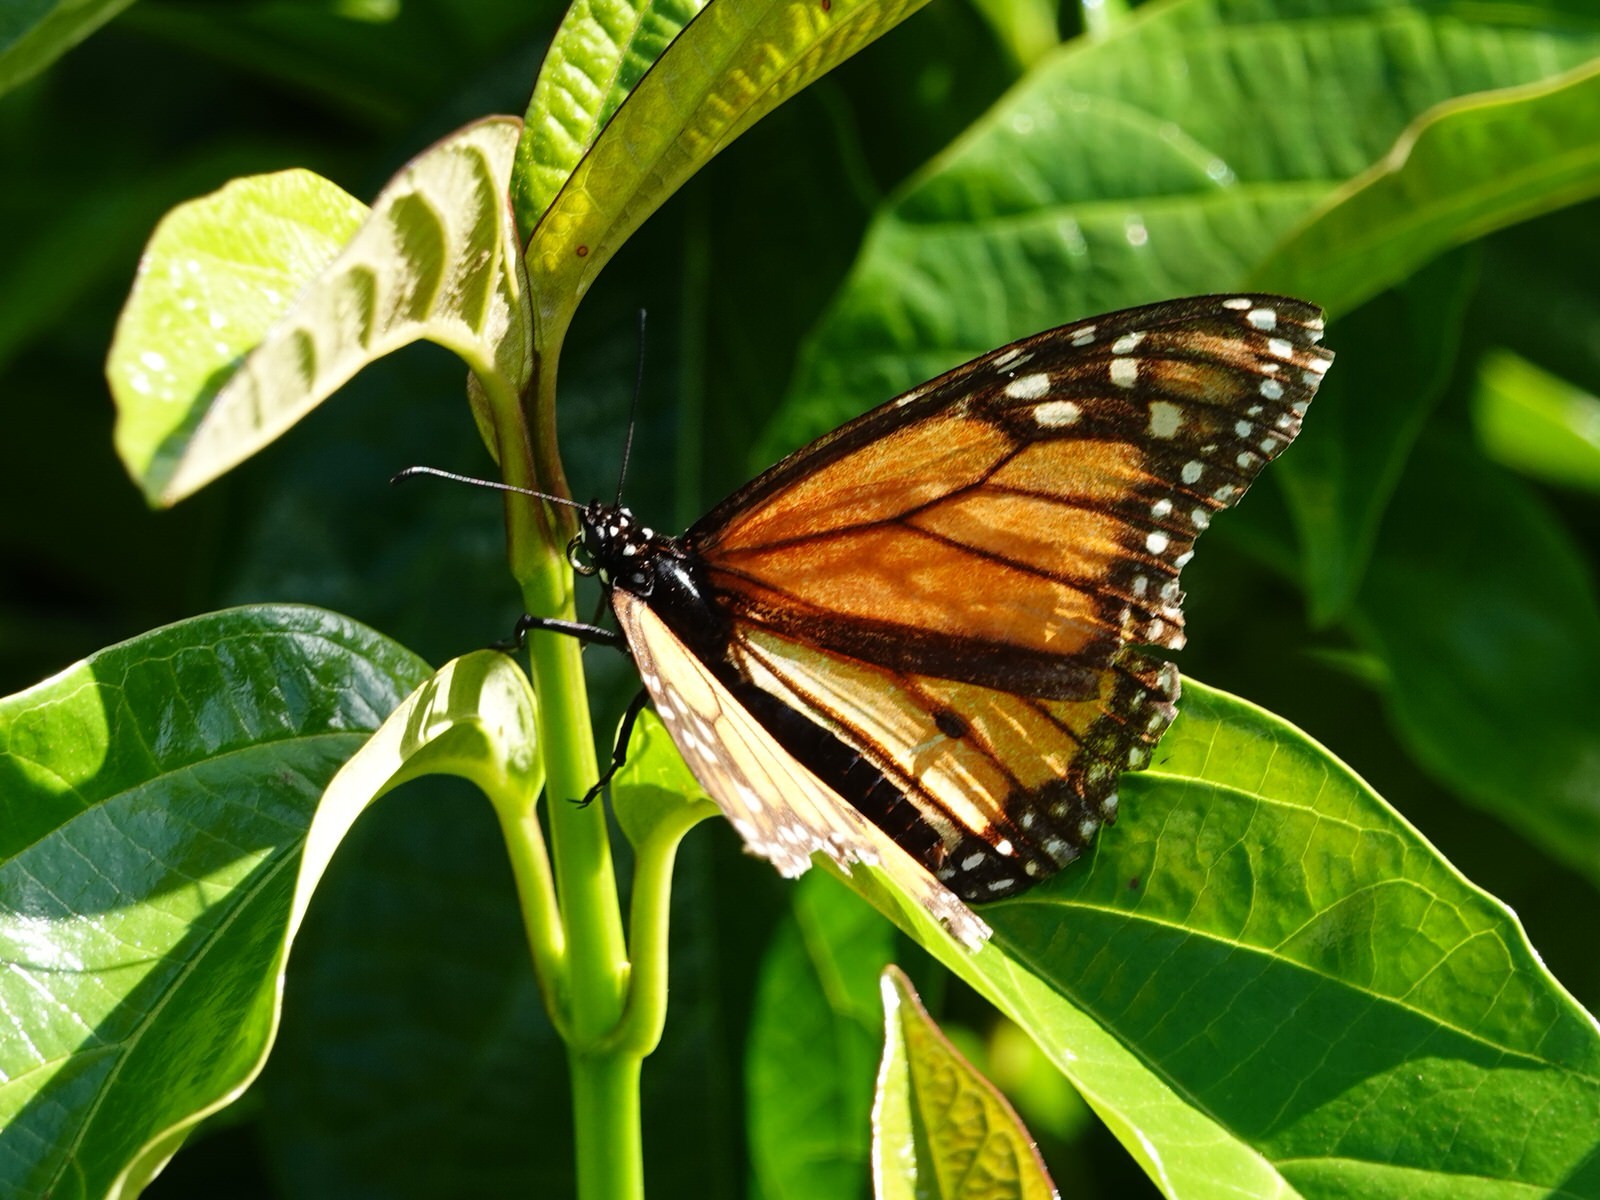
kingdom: Animalia
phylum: Arthropoda
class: Insecta
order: Lepidoptera
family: Nymphalidae
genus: Danaus
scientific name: Danaus plexippus
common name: Monarch
